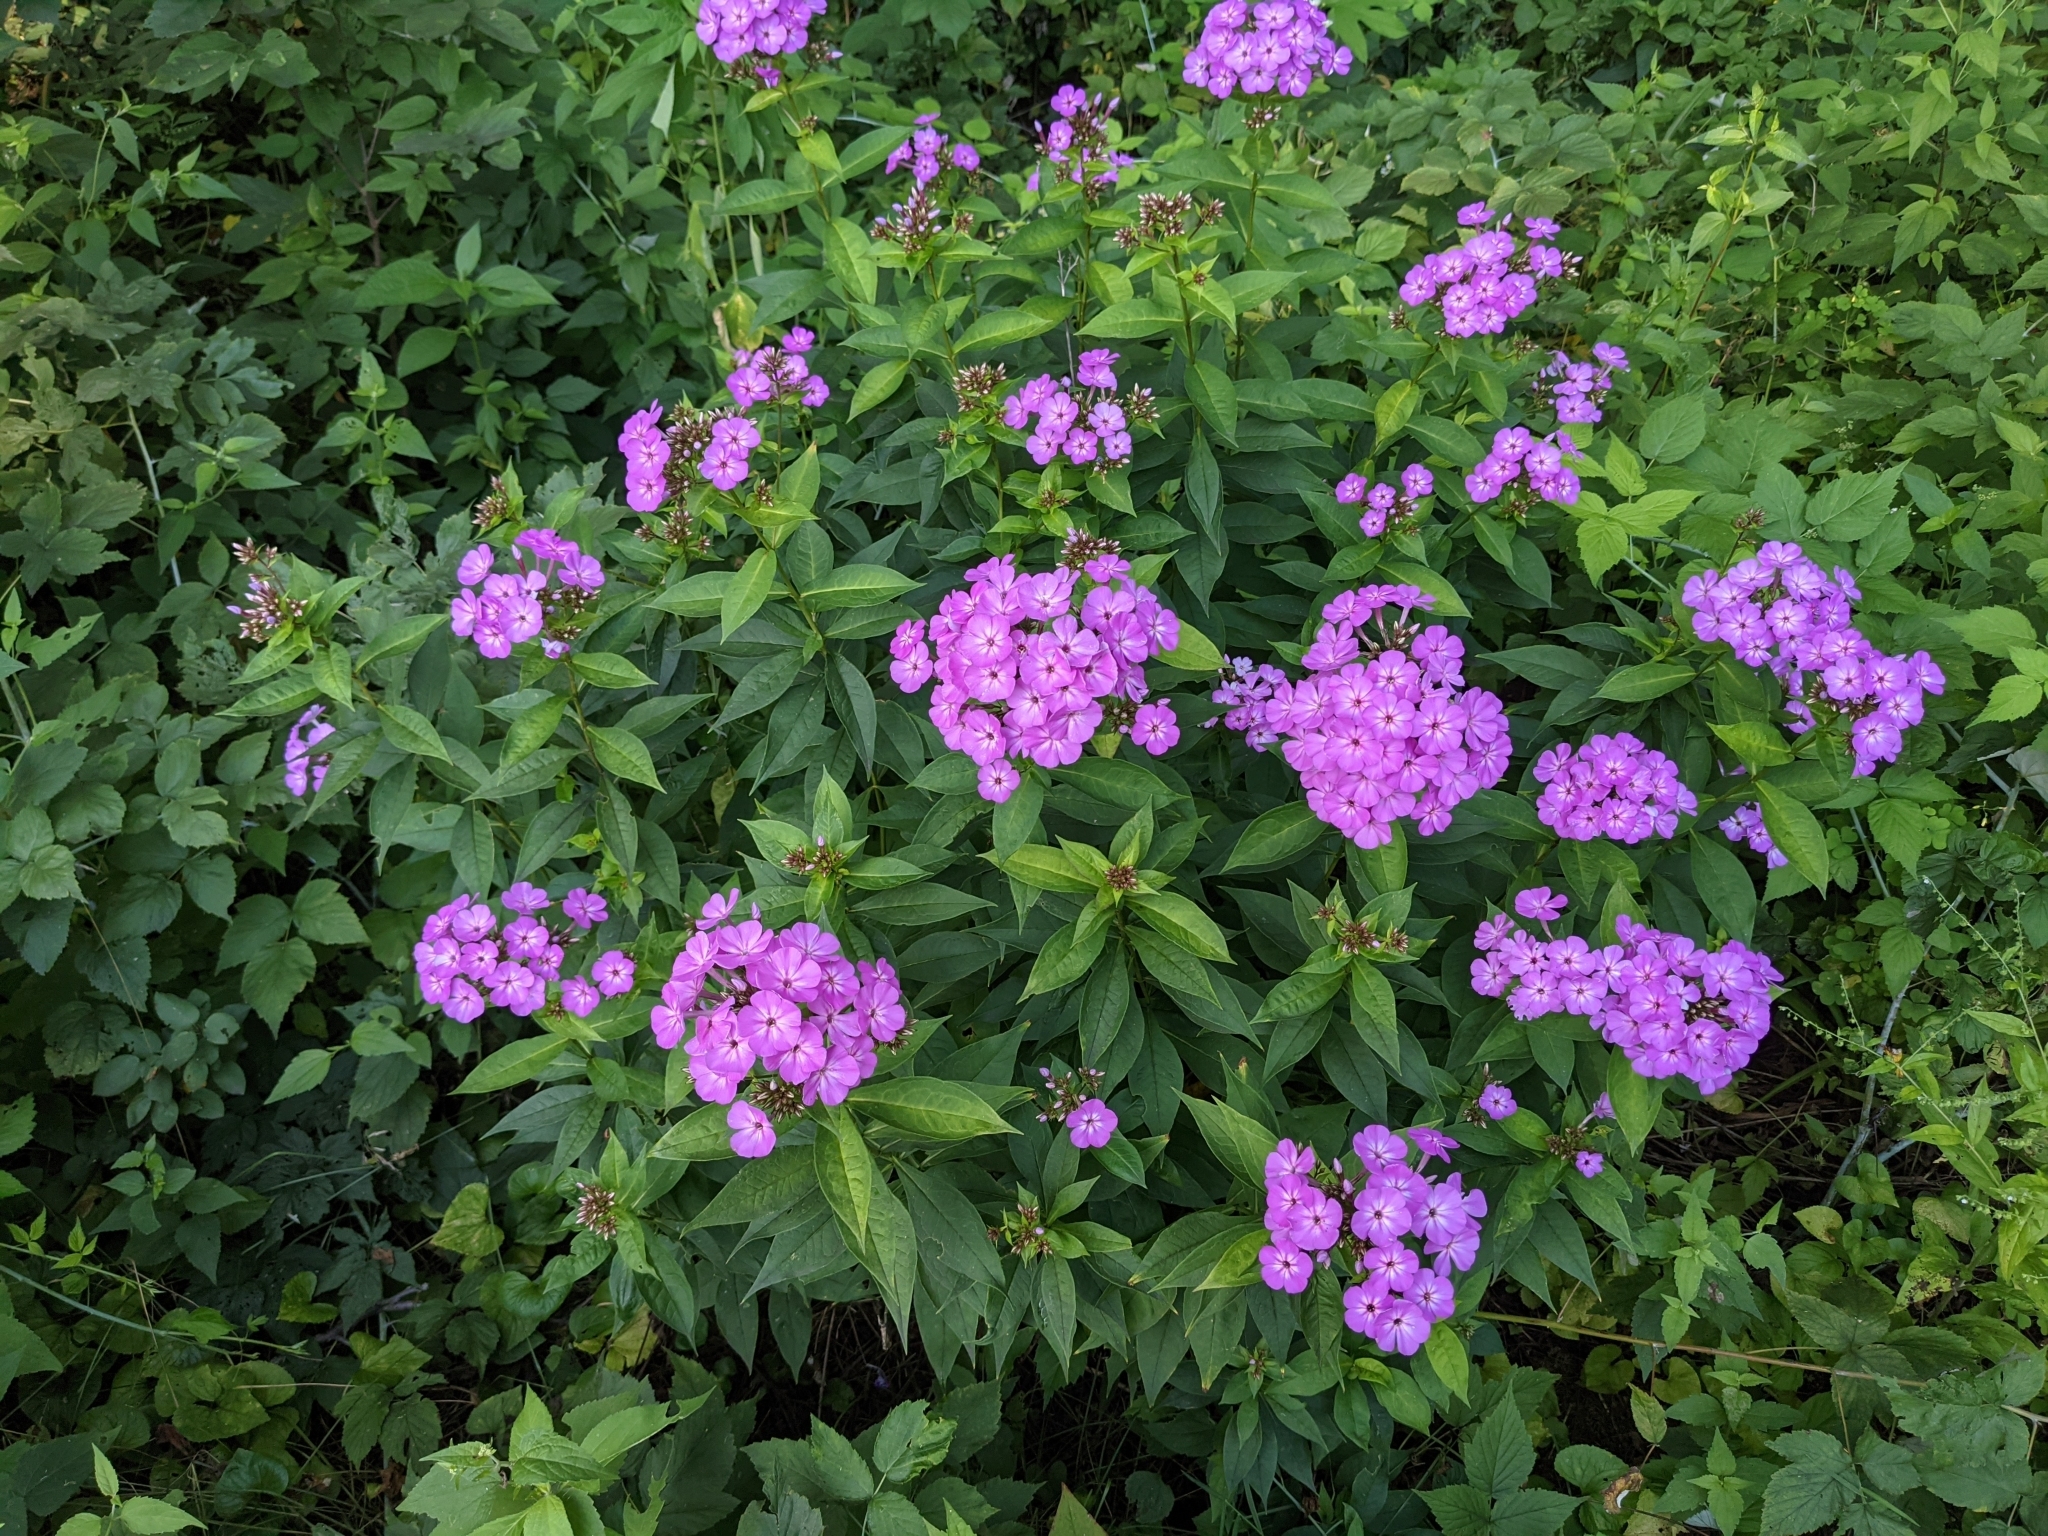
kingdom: Plantae
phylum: Tracheophyta
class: Magnoliopsida
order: Ericales
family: Polemoniaceae
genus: Phlox
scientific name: Phlox paniculata
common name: Fall phlox
